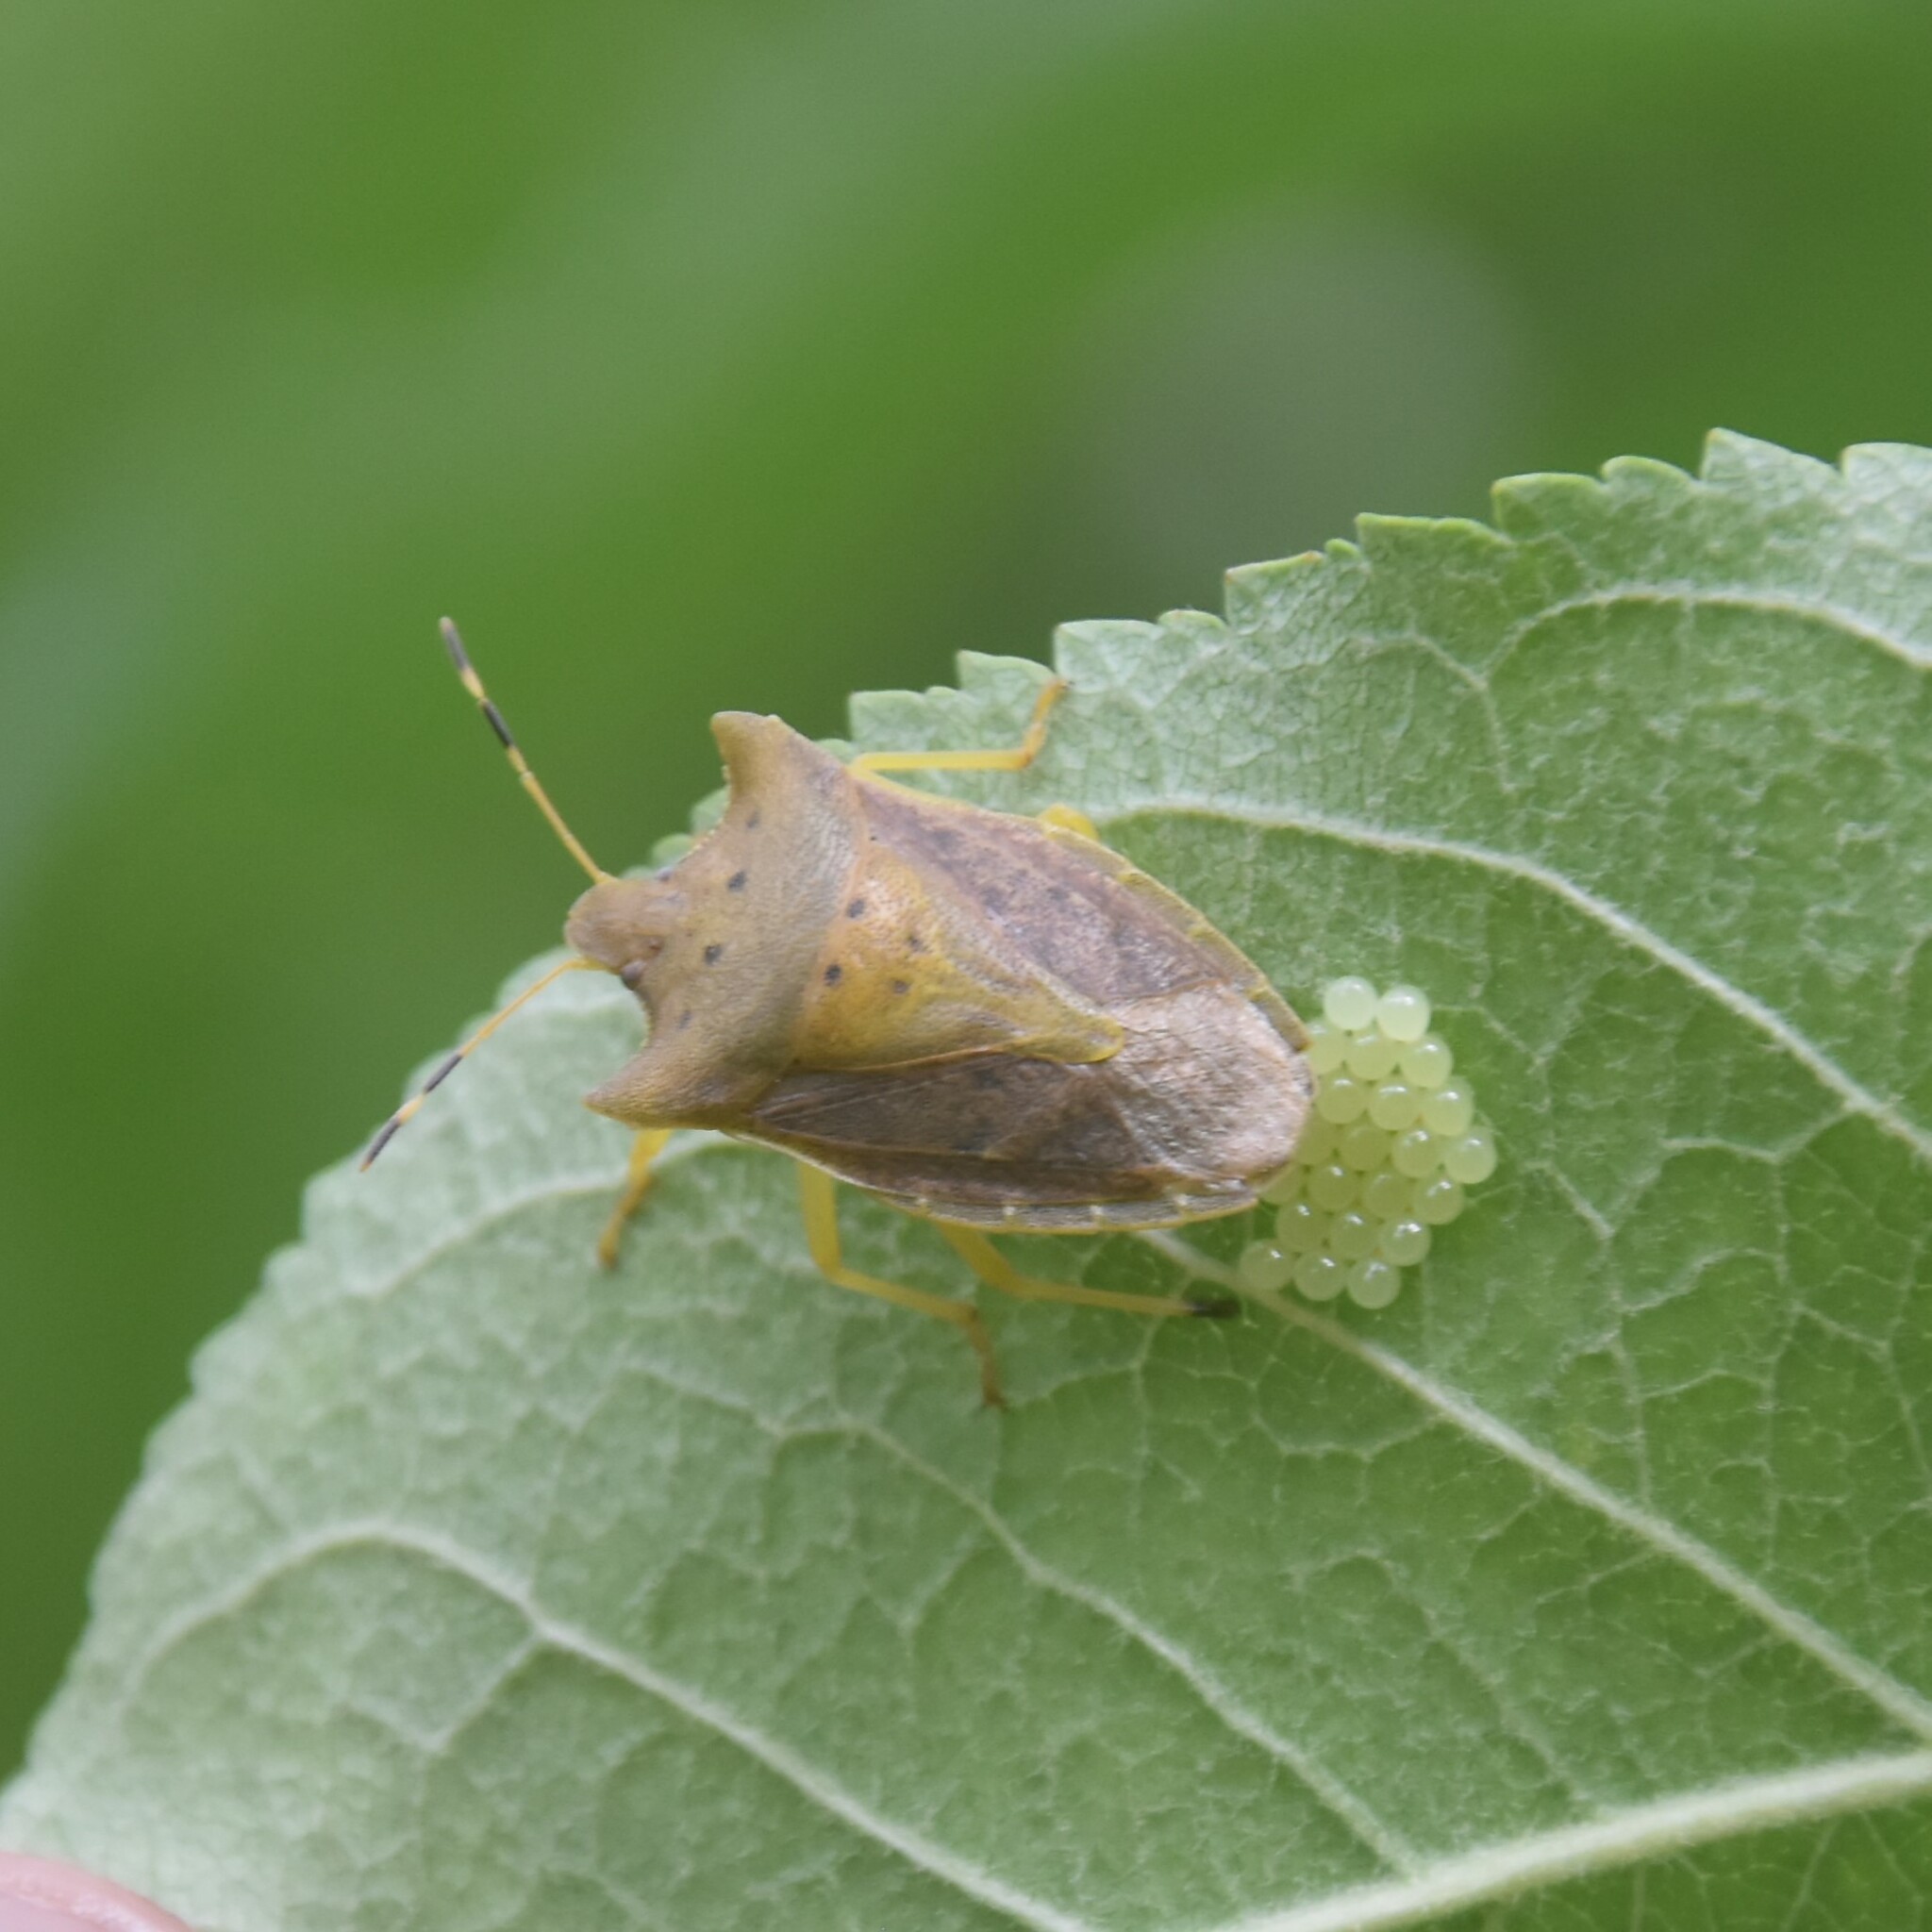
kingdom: Animalia
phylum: Arthropoda
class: Insecta
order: Hemiptera
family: Pentatomidae
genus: Lelia
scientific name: Lelia octopunctata
